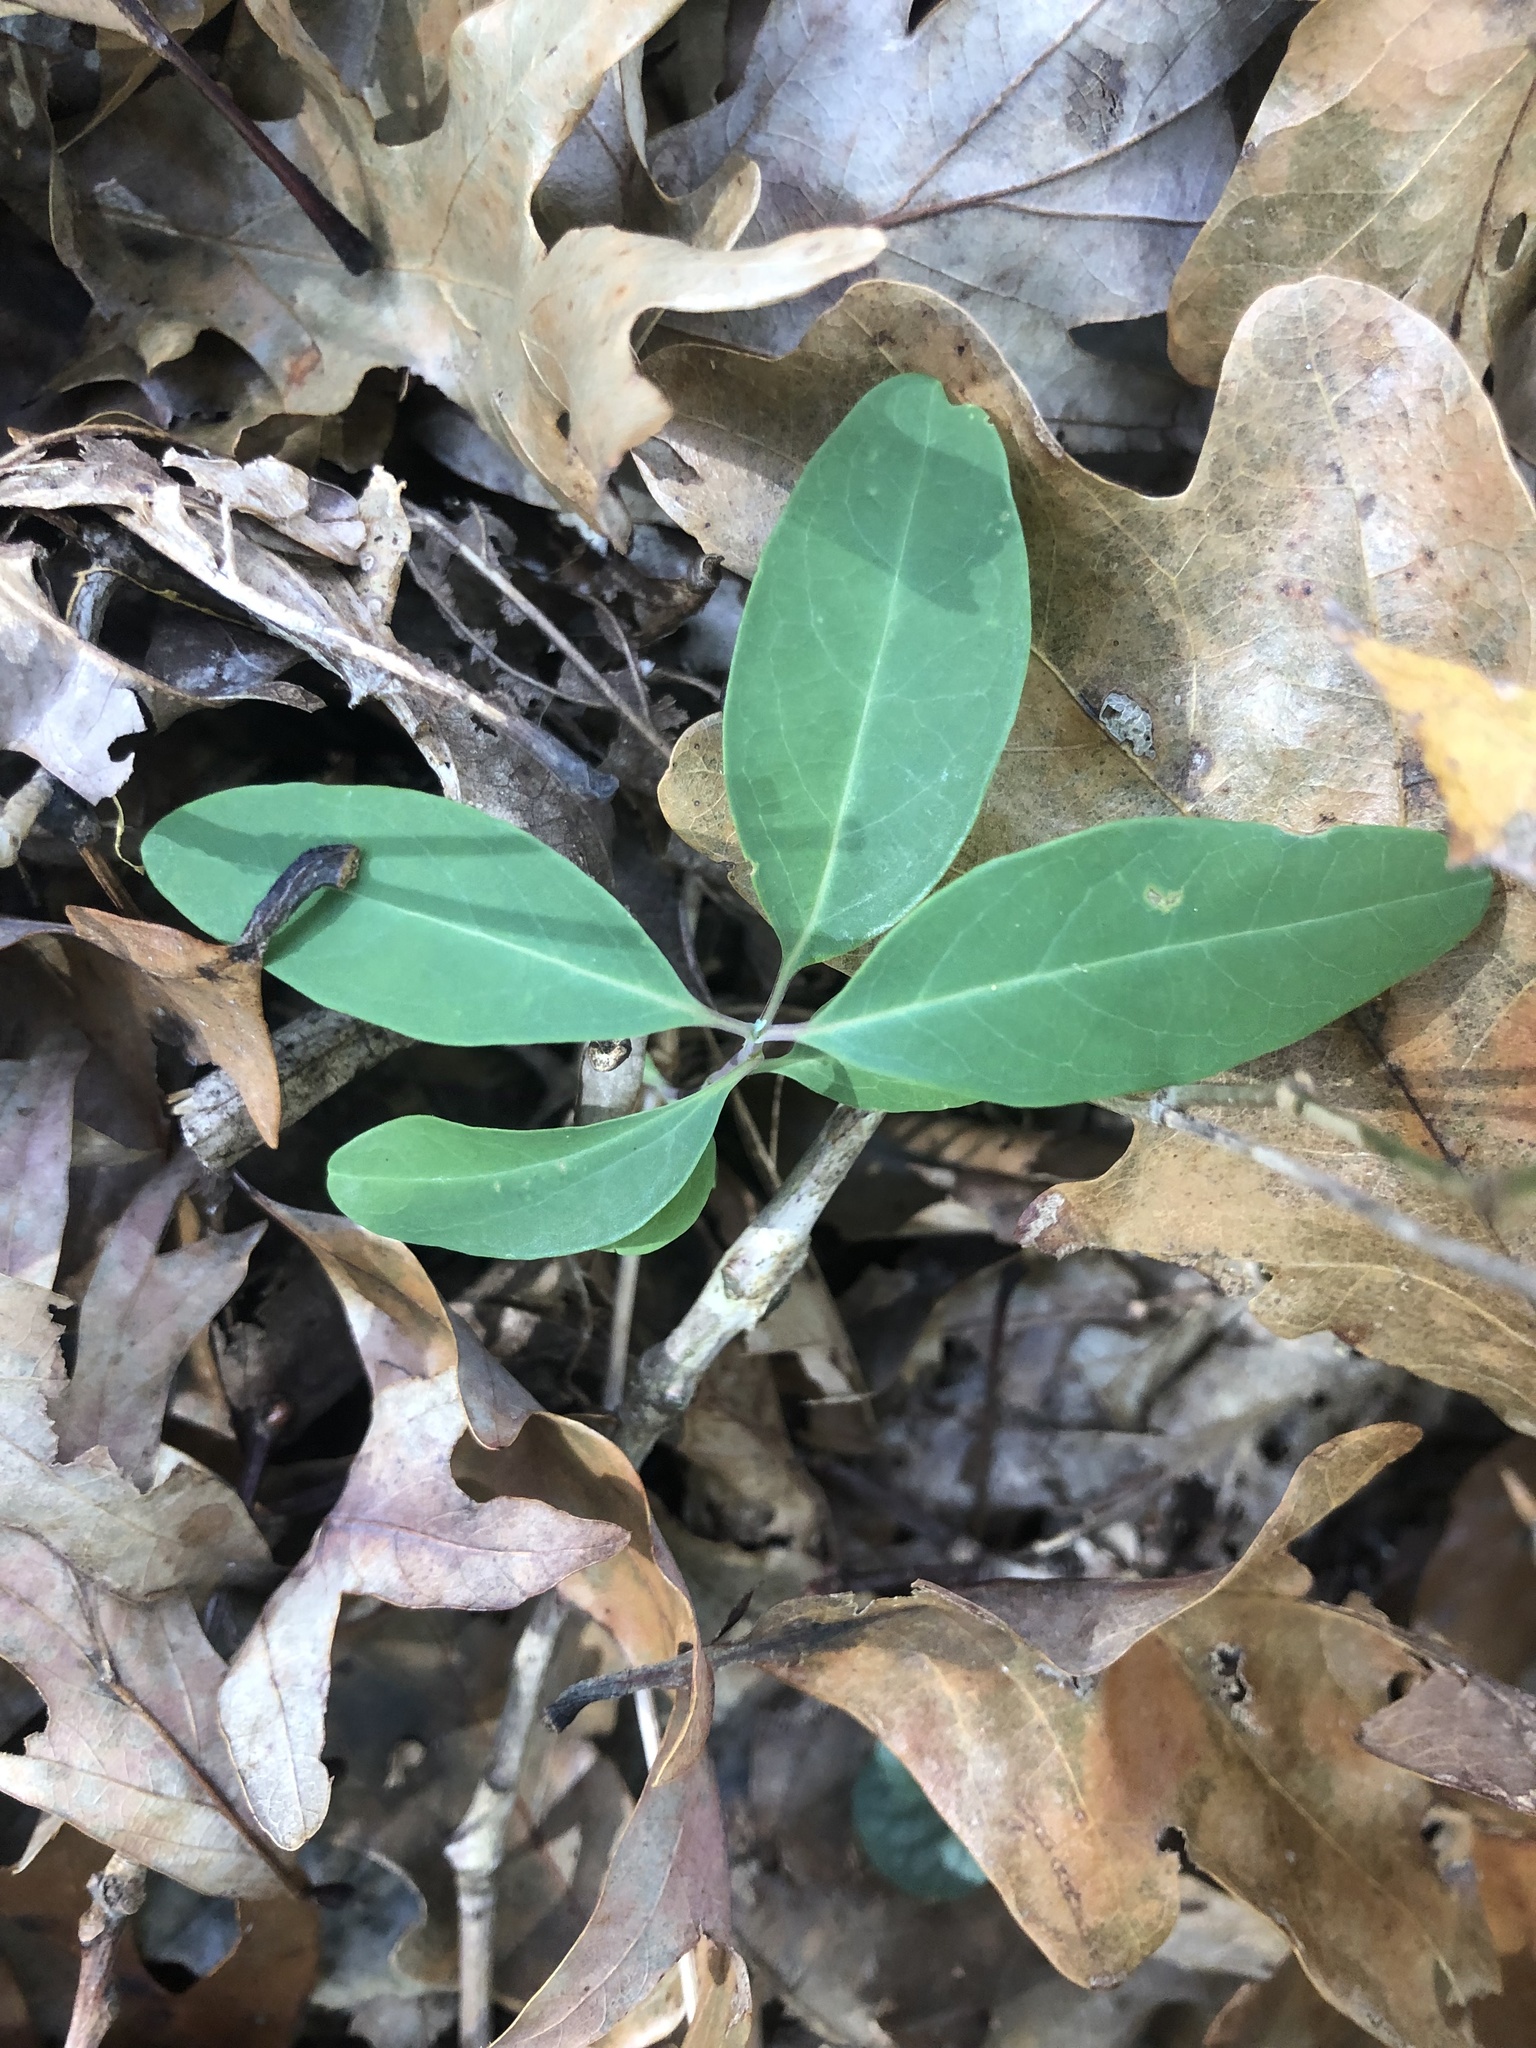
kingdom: Plantae
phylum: Tracheophyta
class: Magnoliopsida
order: Dipsacales
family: Caprifoliaceae
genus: Lonicera
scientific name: Lonicera sempervirens
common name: Coral honeysuckle
